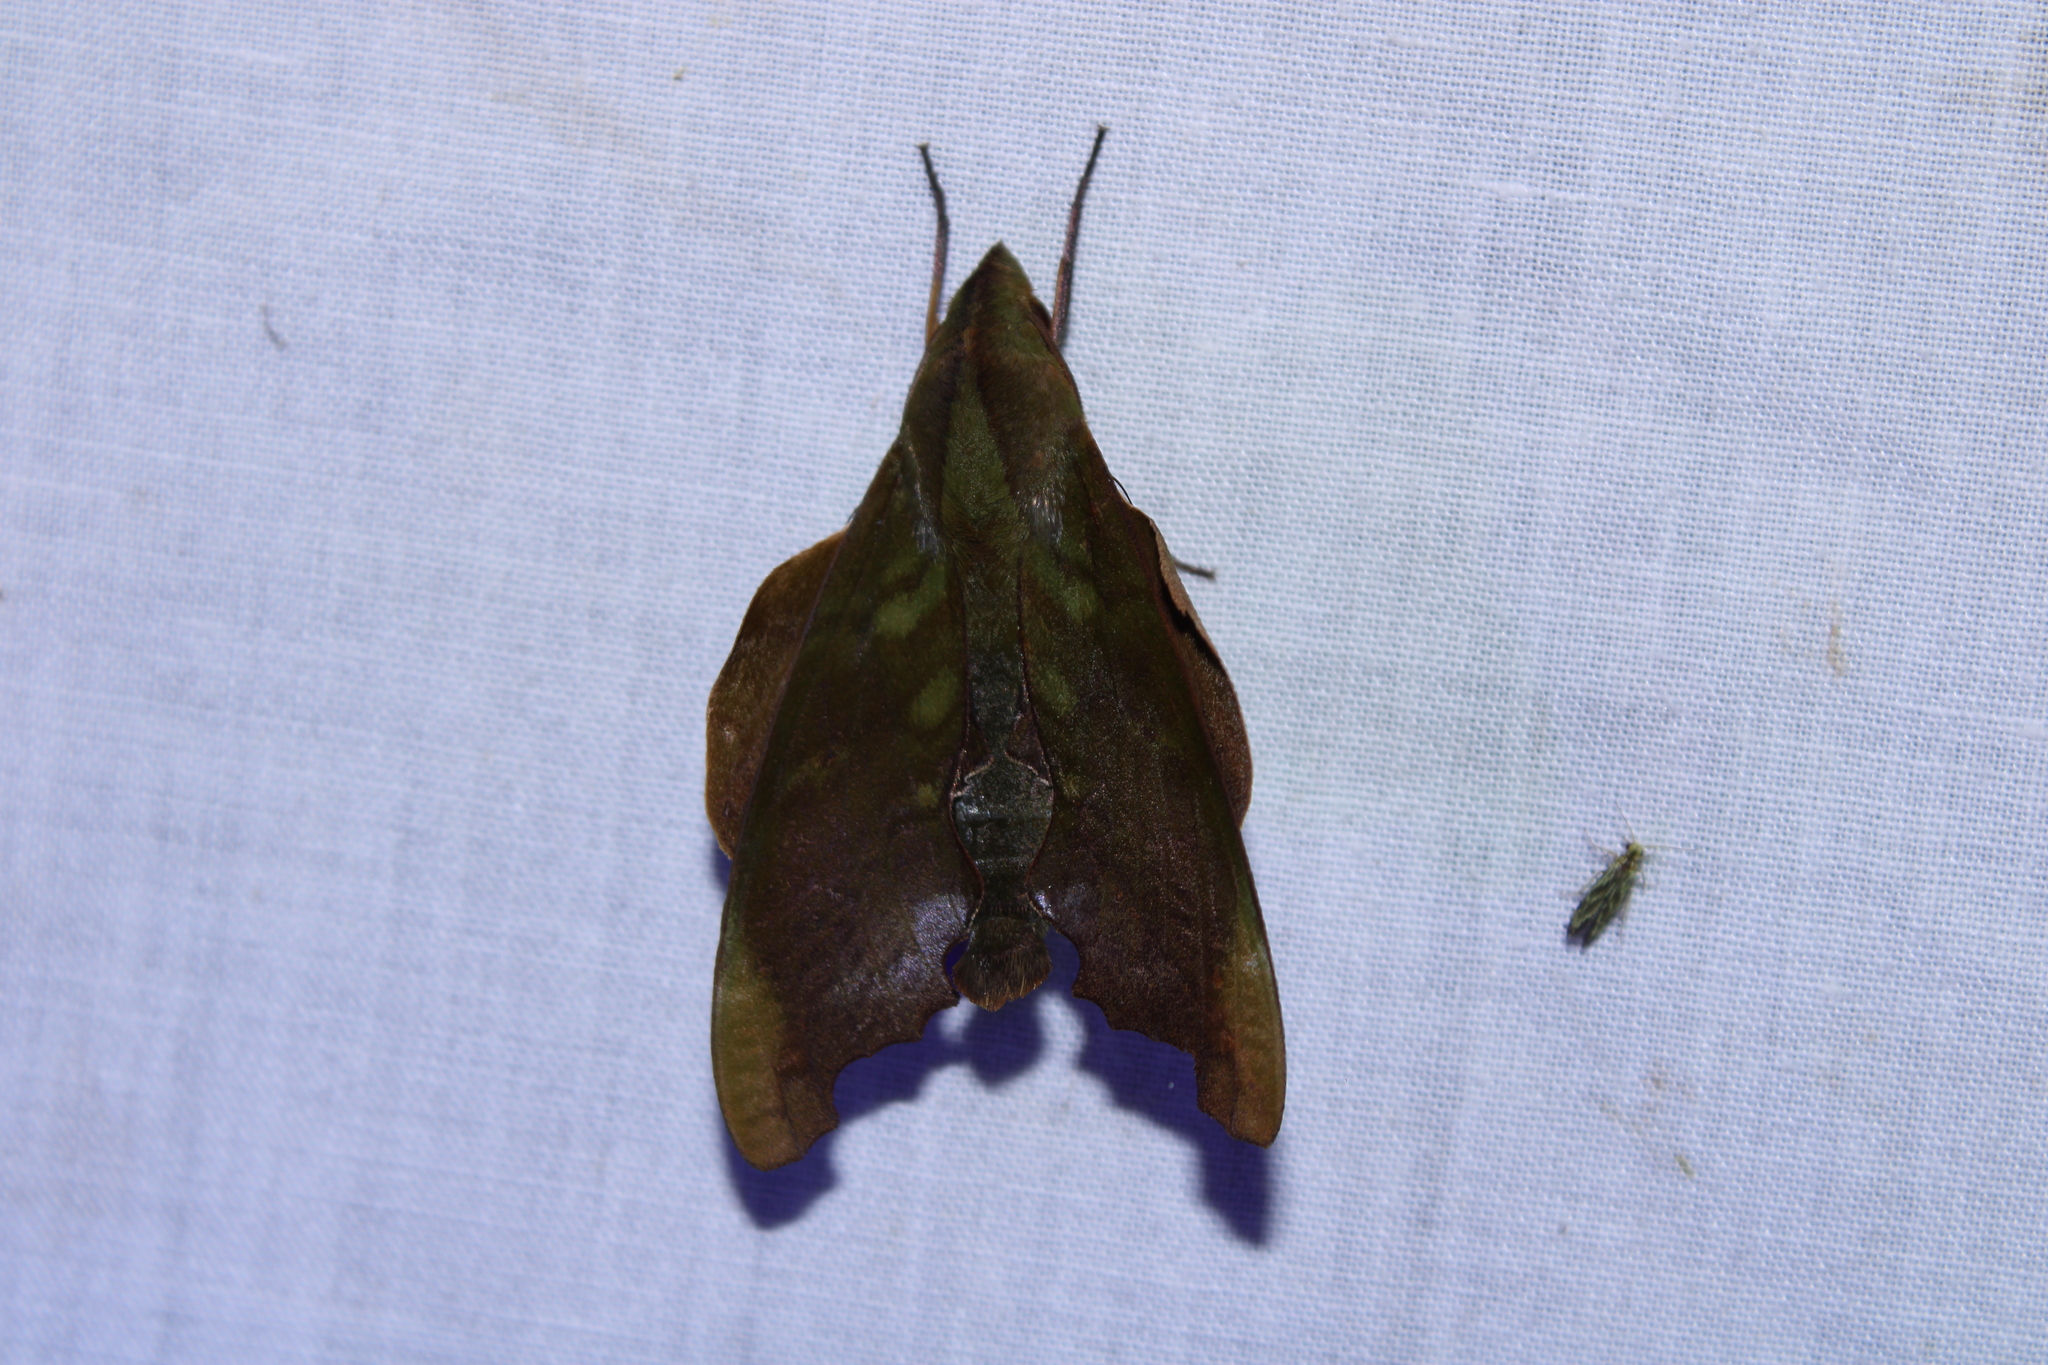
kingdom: Animalia
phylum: Arthropoda
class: Insecta
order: Lepidoptera
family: Sphingidae
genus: Stolidoptera
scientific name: Stolidoptera tachasara
